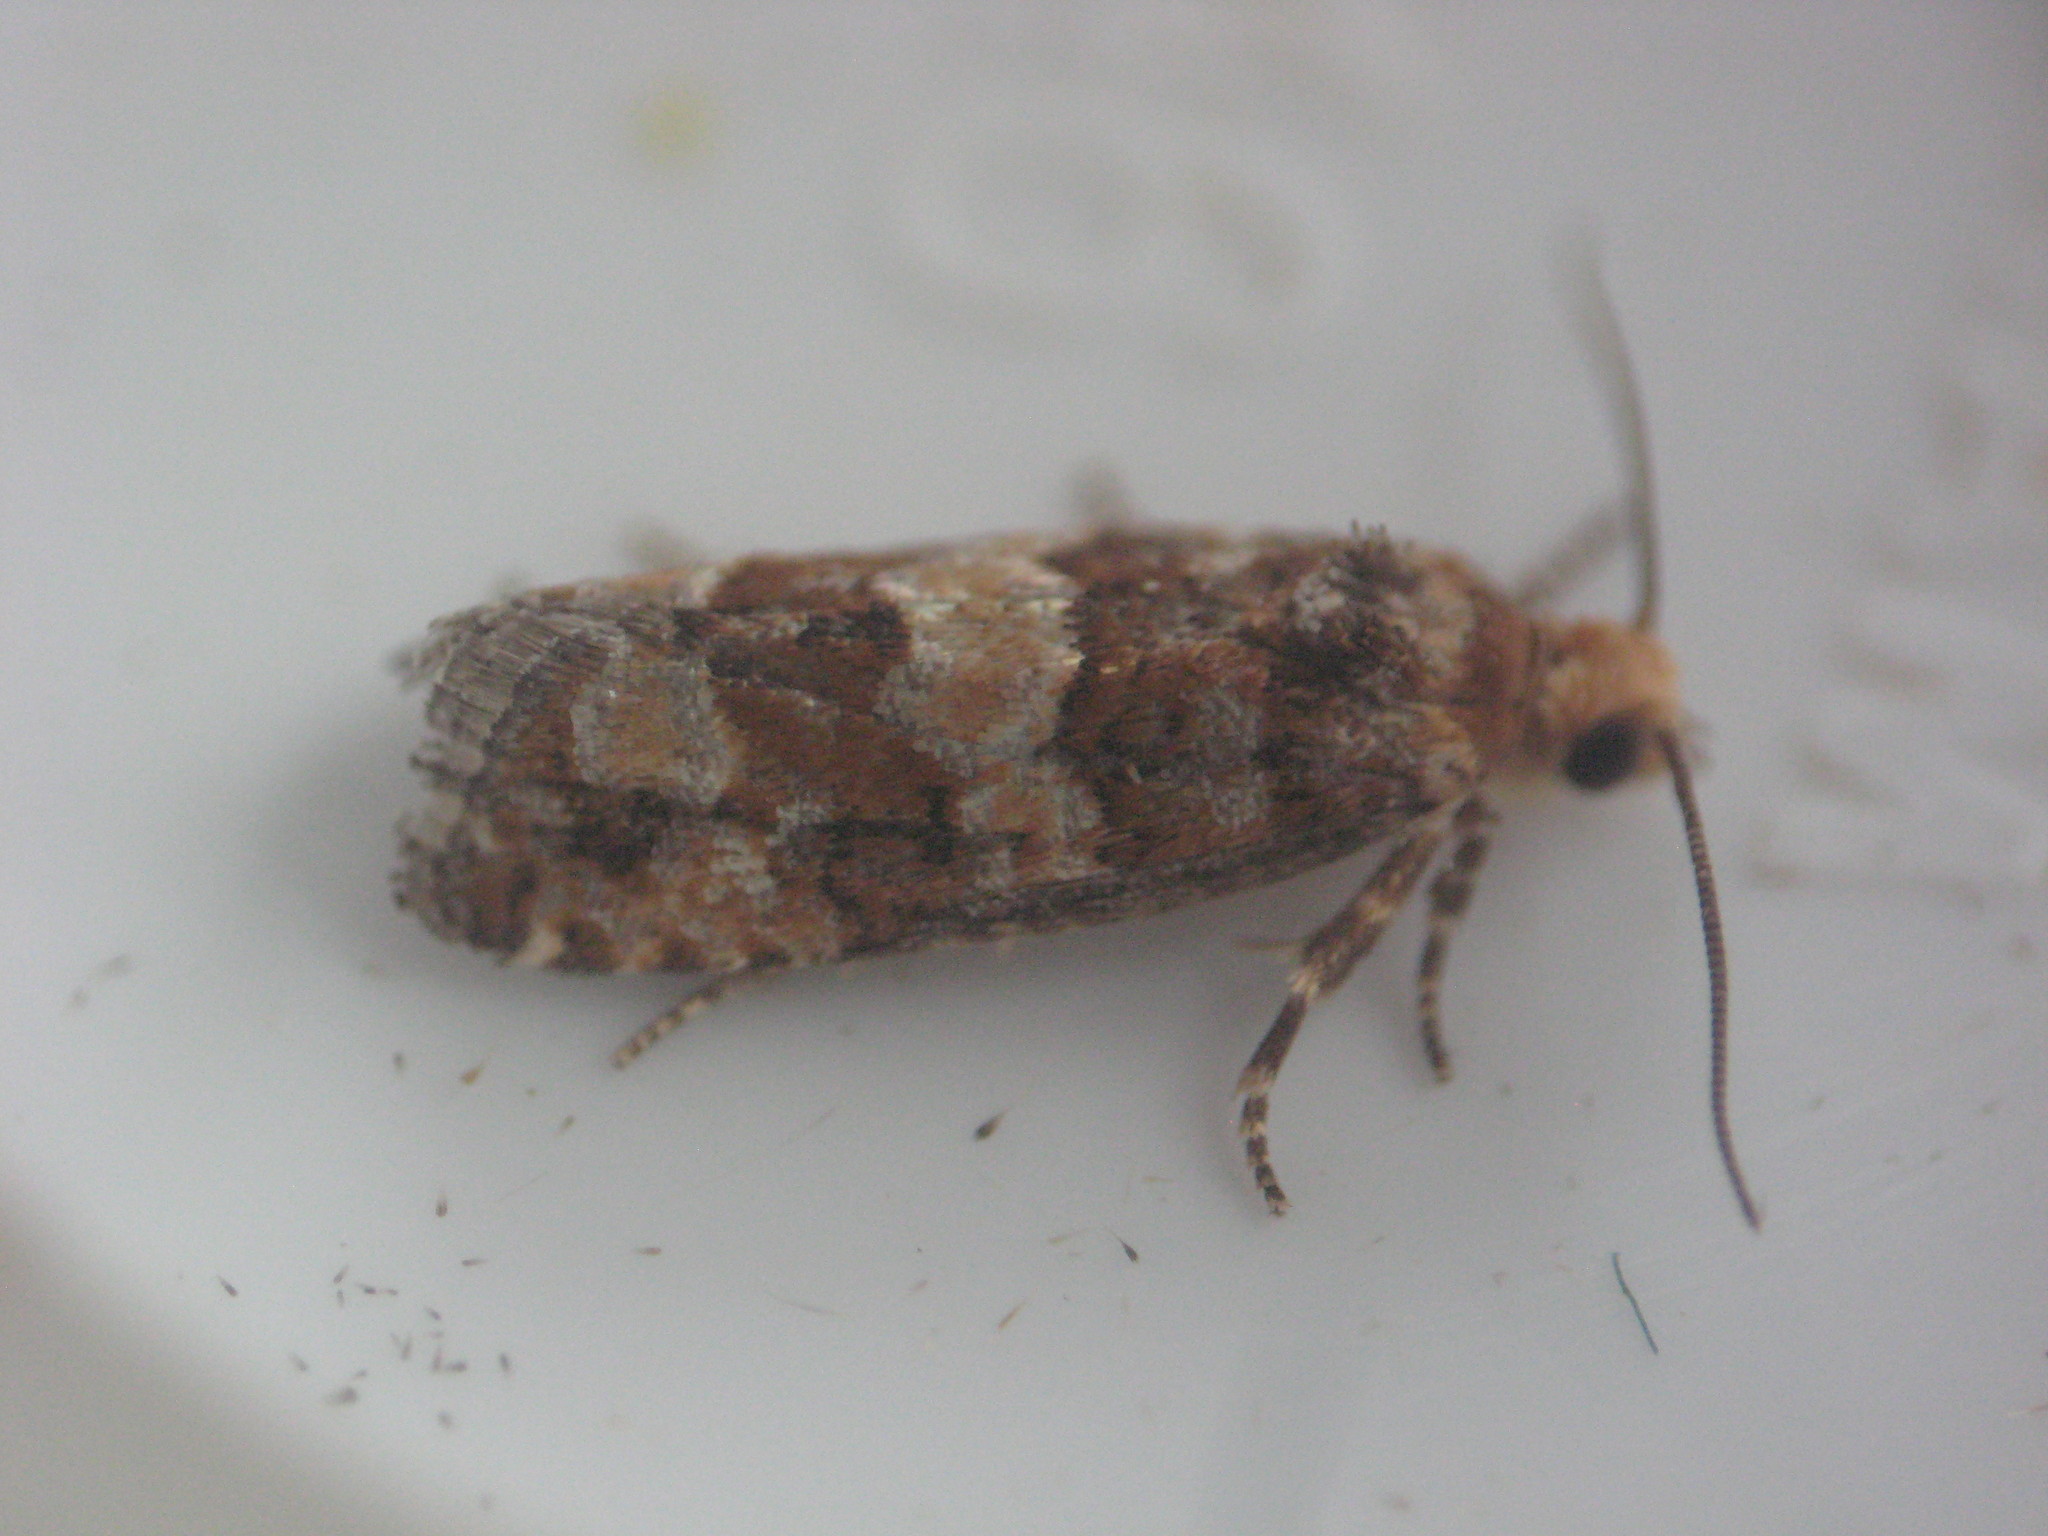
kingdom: Animalia
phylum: Arthropoda
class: Insecta
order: Lepidoptera
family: Tortricidae
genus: Eucopina
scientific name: Eucopina tocullionana
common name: White pinecone borer moth
